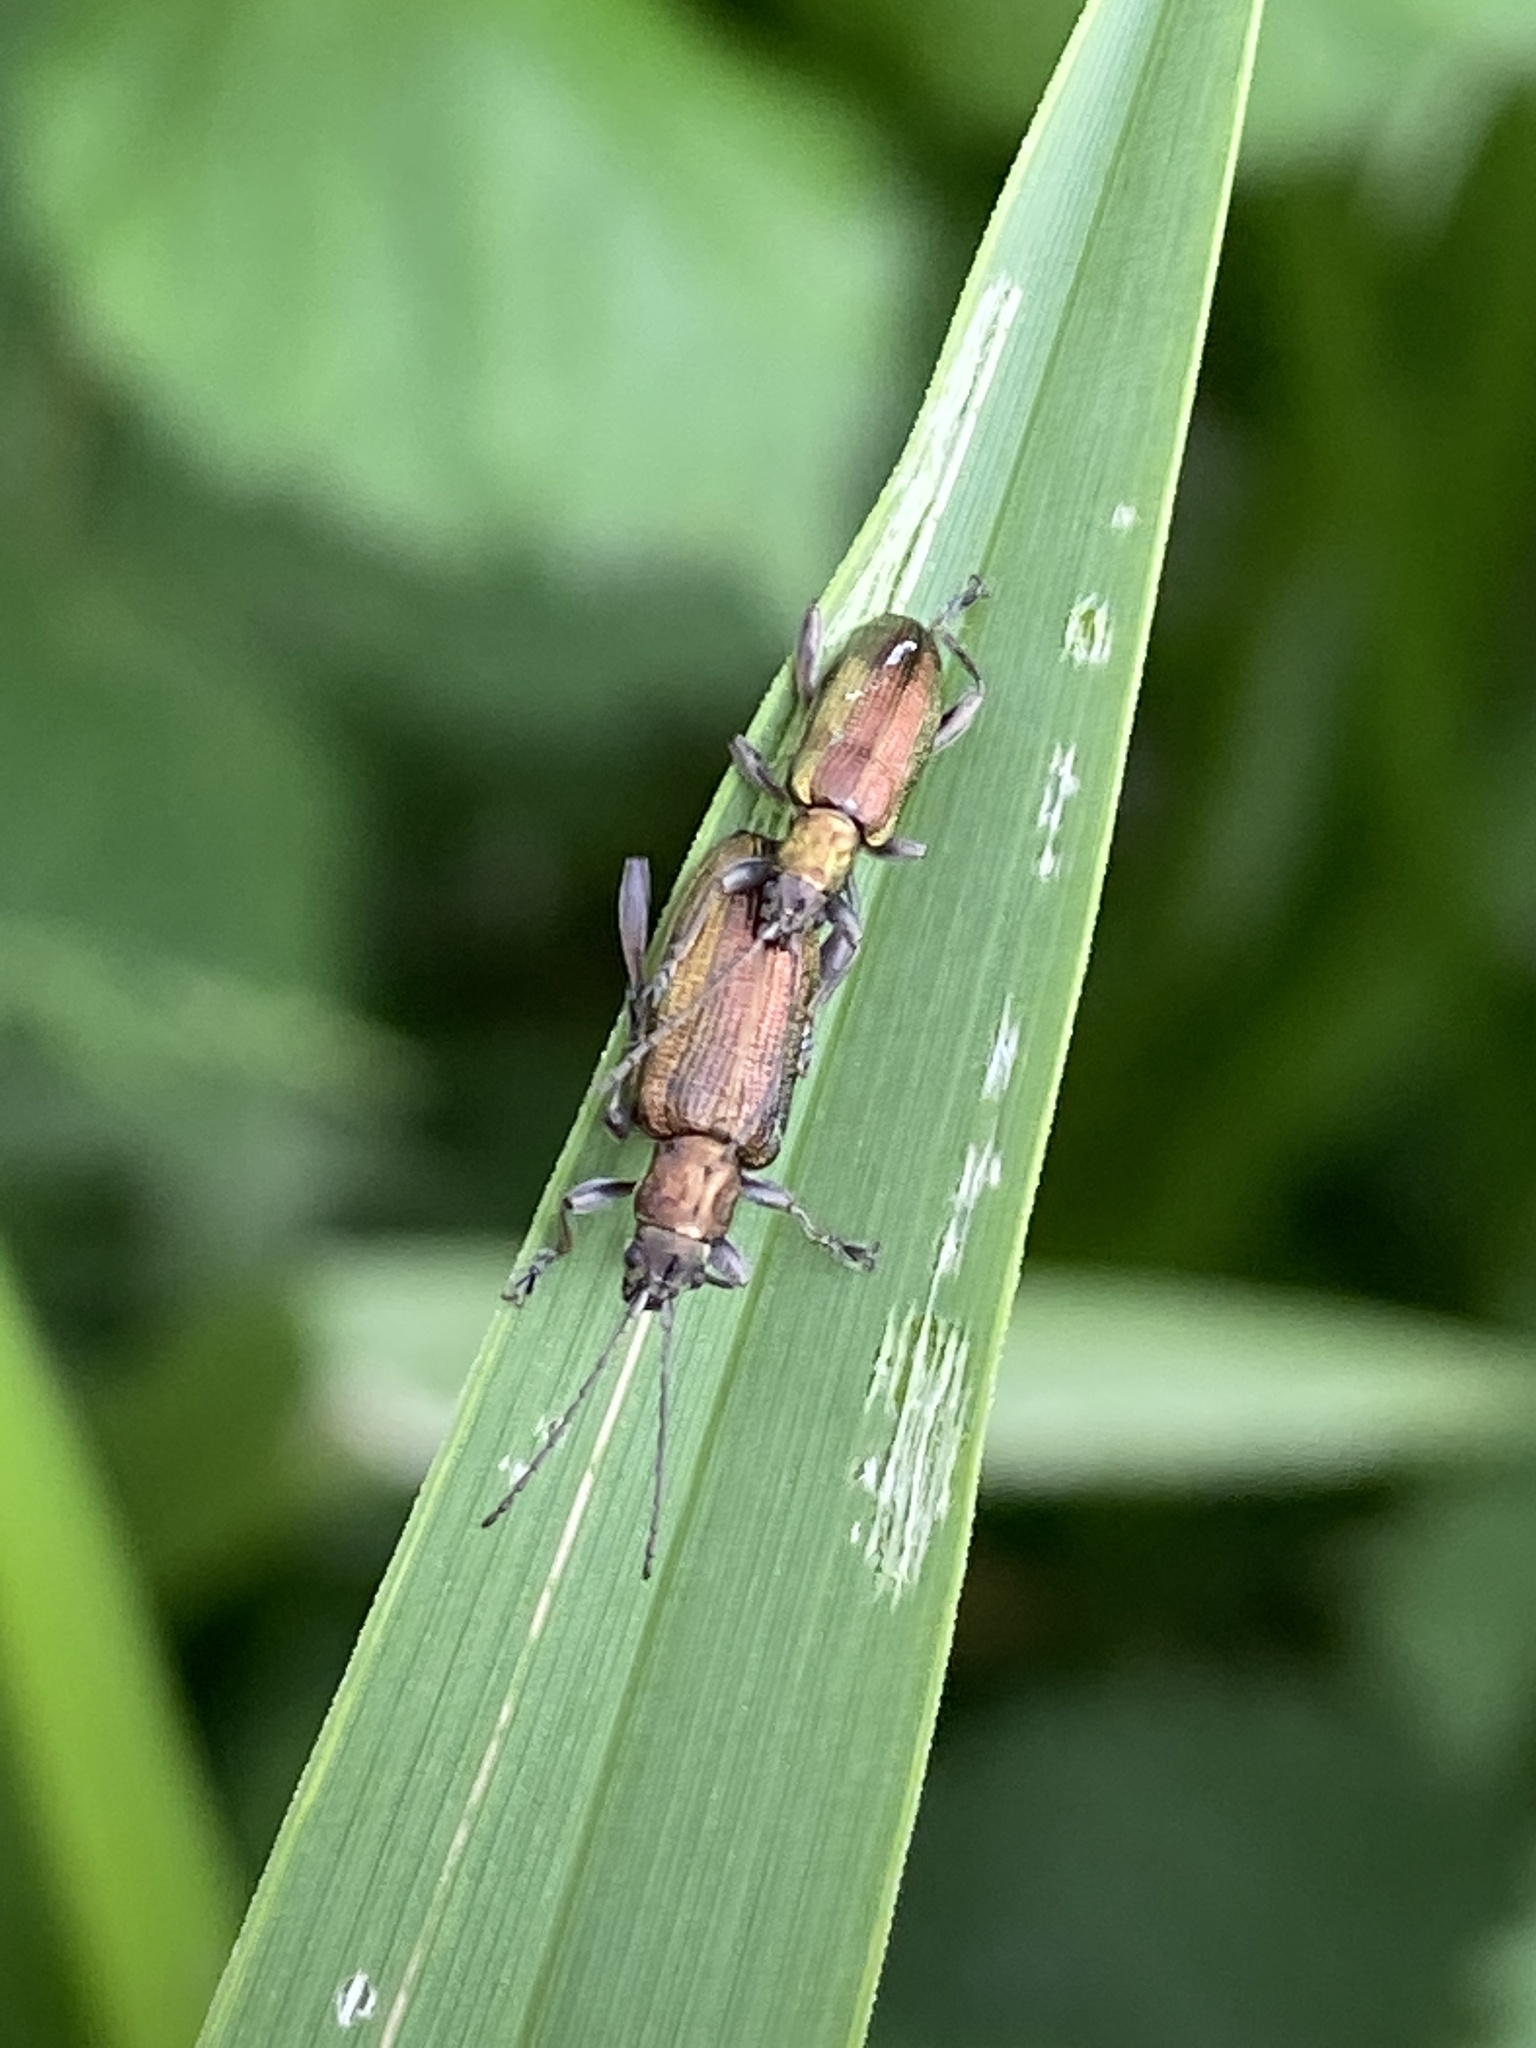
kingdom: Animalia
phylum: Arthropoda
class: Insecta
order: Coleoptera
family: Chrysomelidae
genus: Donacia
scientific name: Donacia semicuprea
